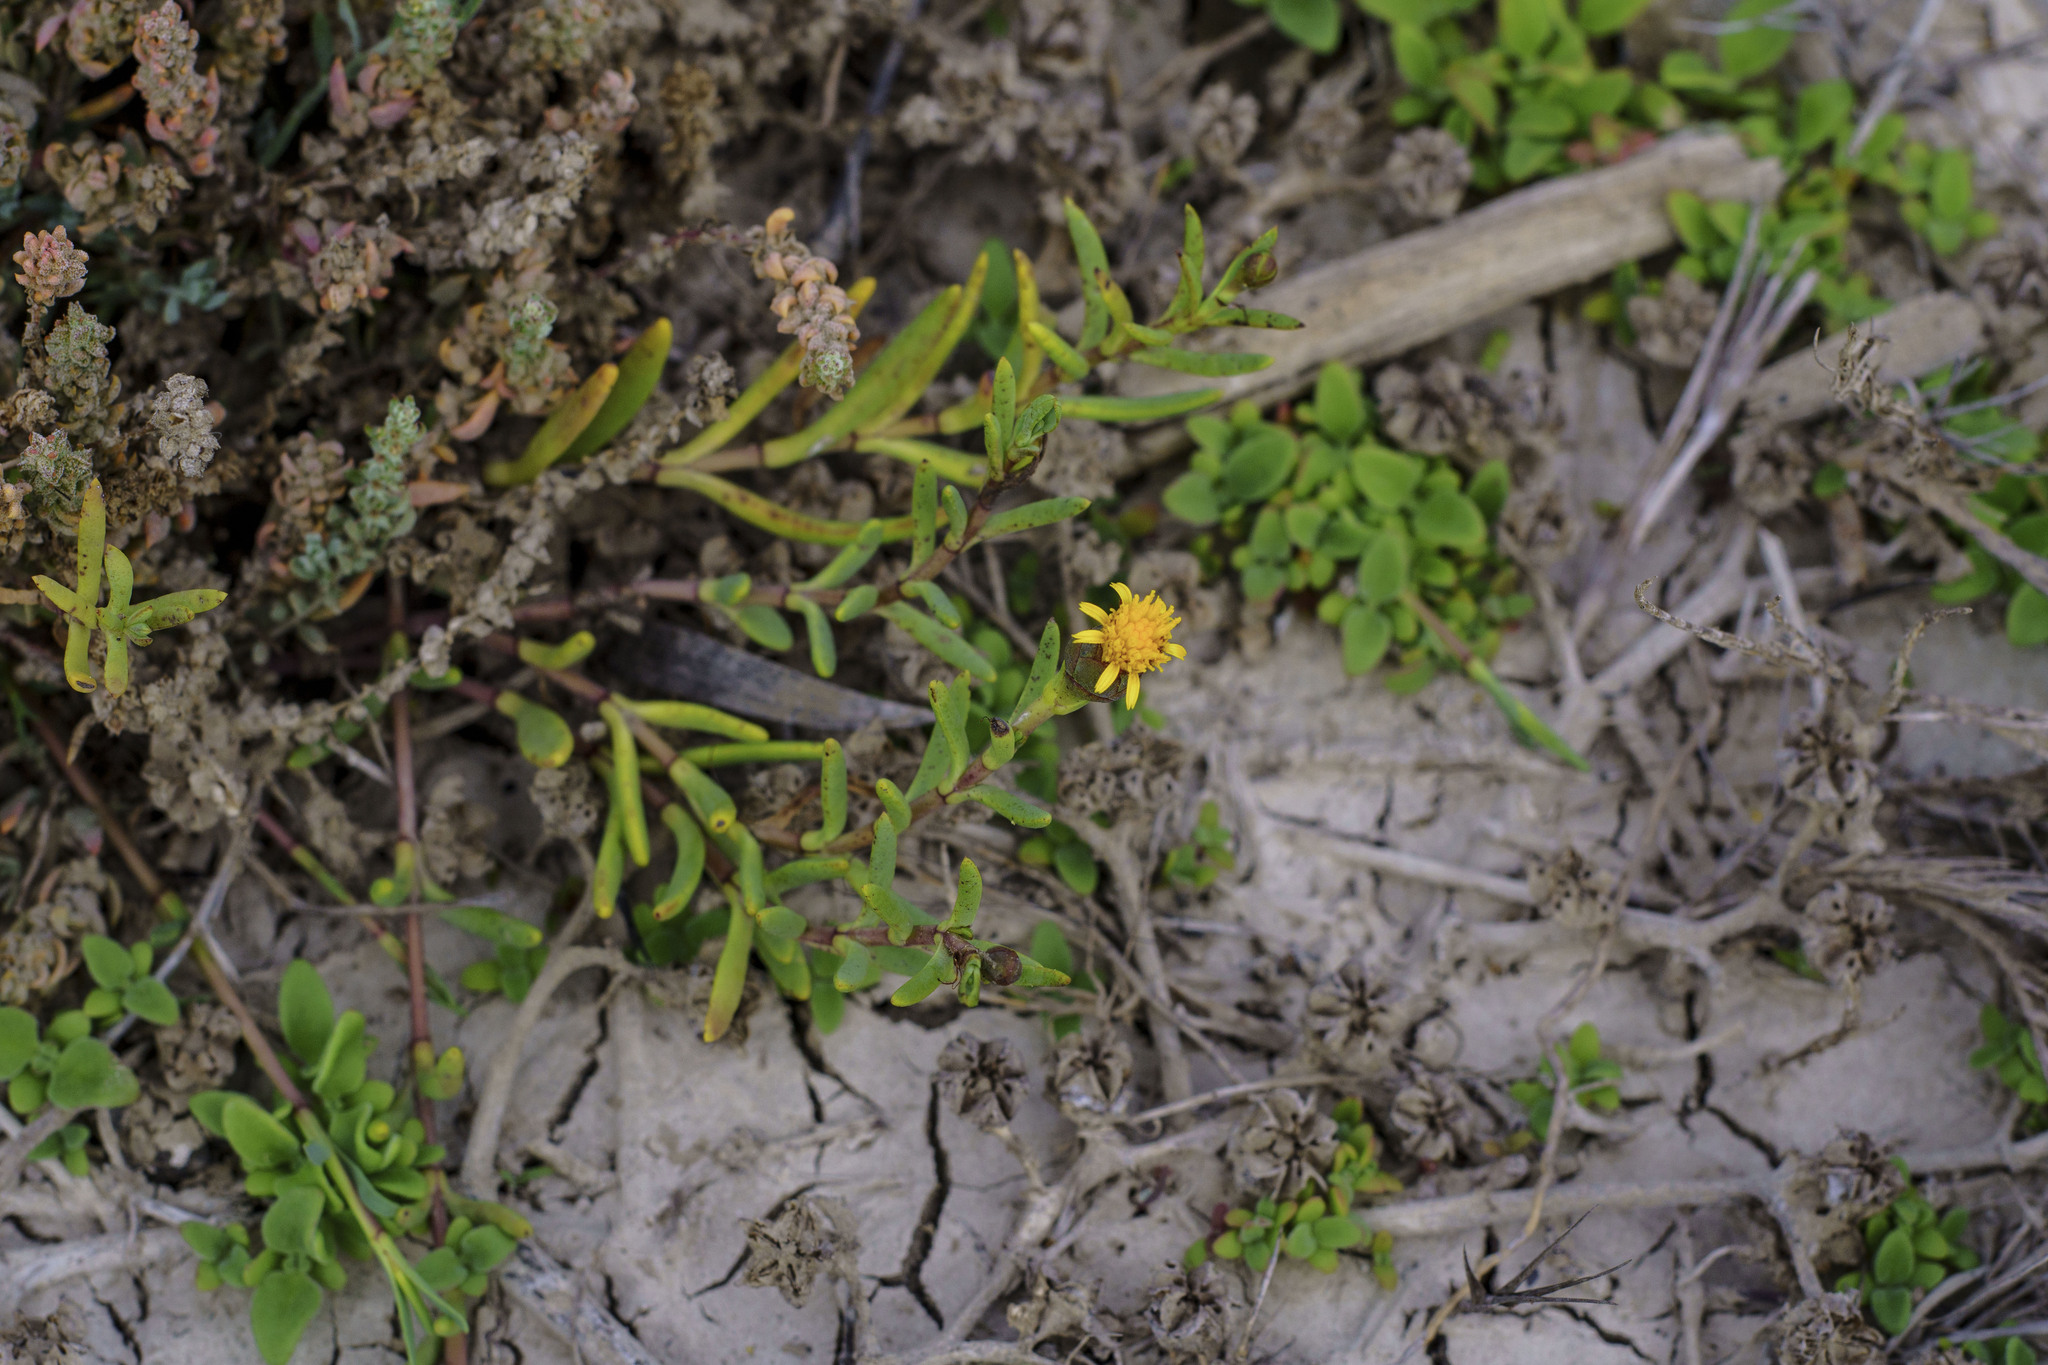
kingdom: Plantae
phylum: Tracheophyta
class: Magnoliopsida
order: Asterales
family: Asteraceae
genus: Jaumea
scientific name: Jaumea carnosa
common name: Fleshy jaumea
